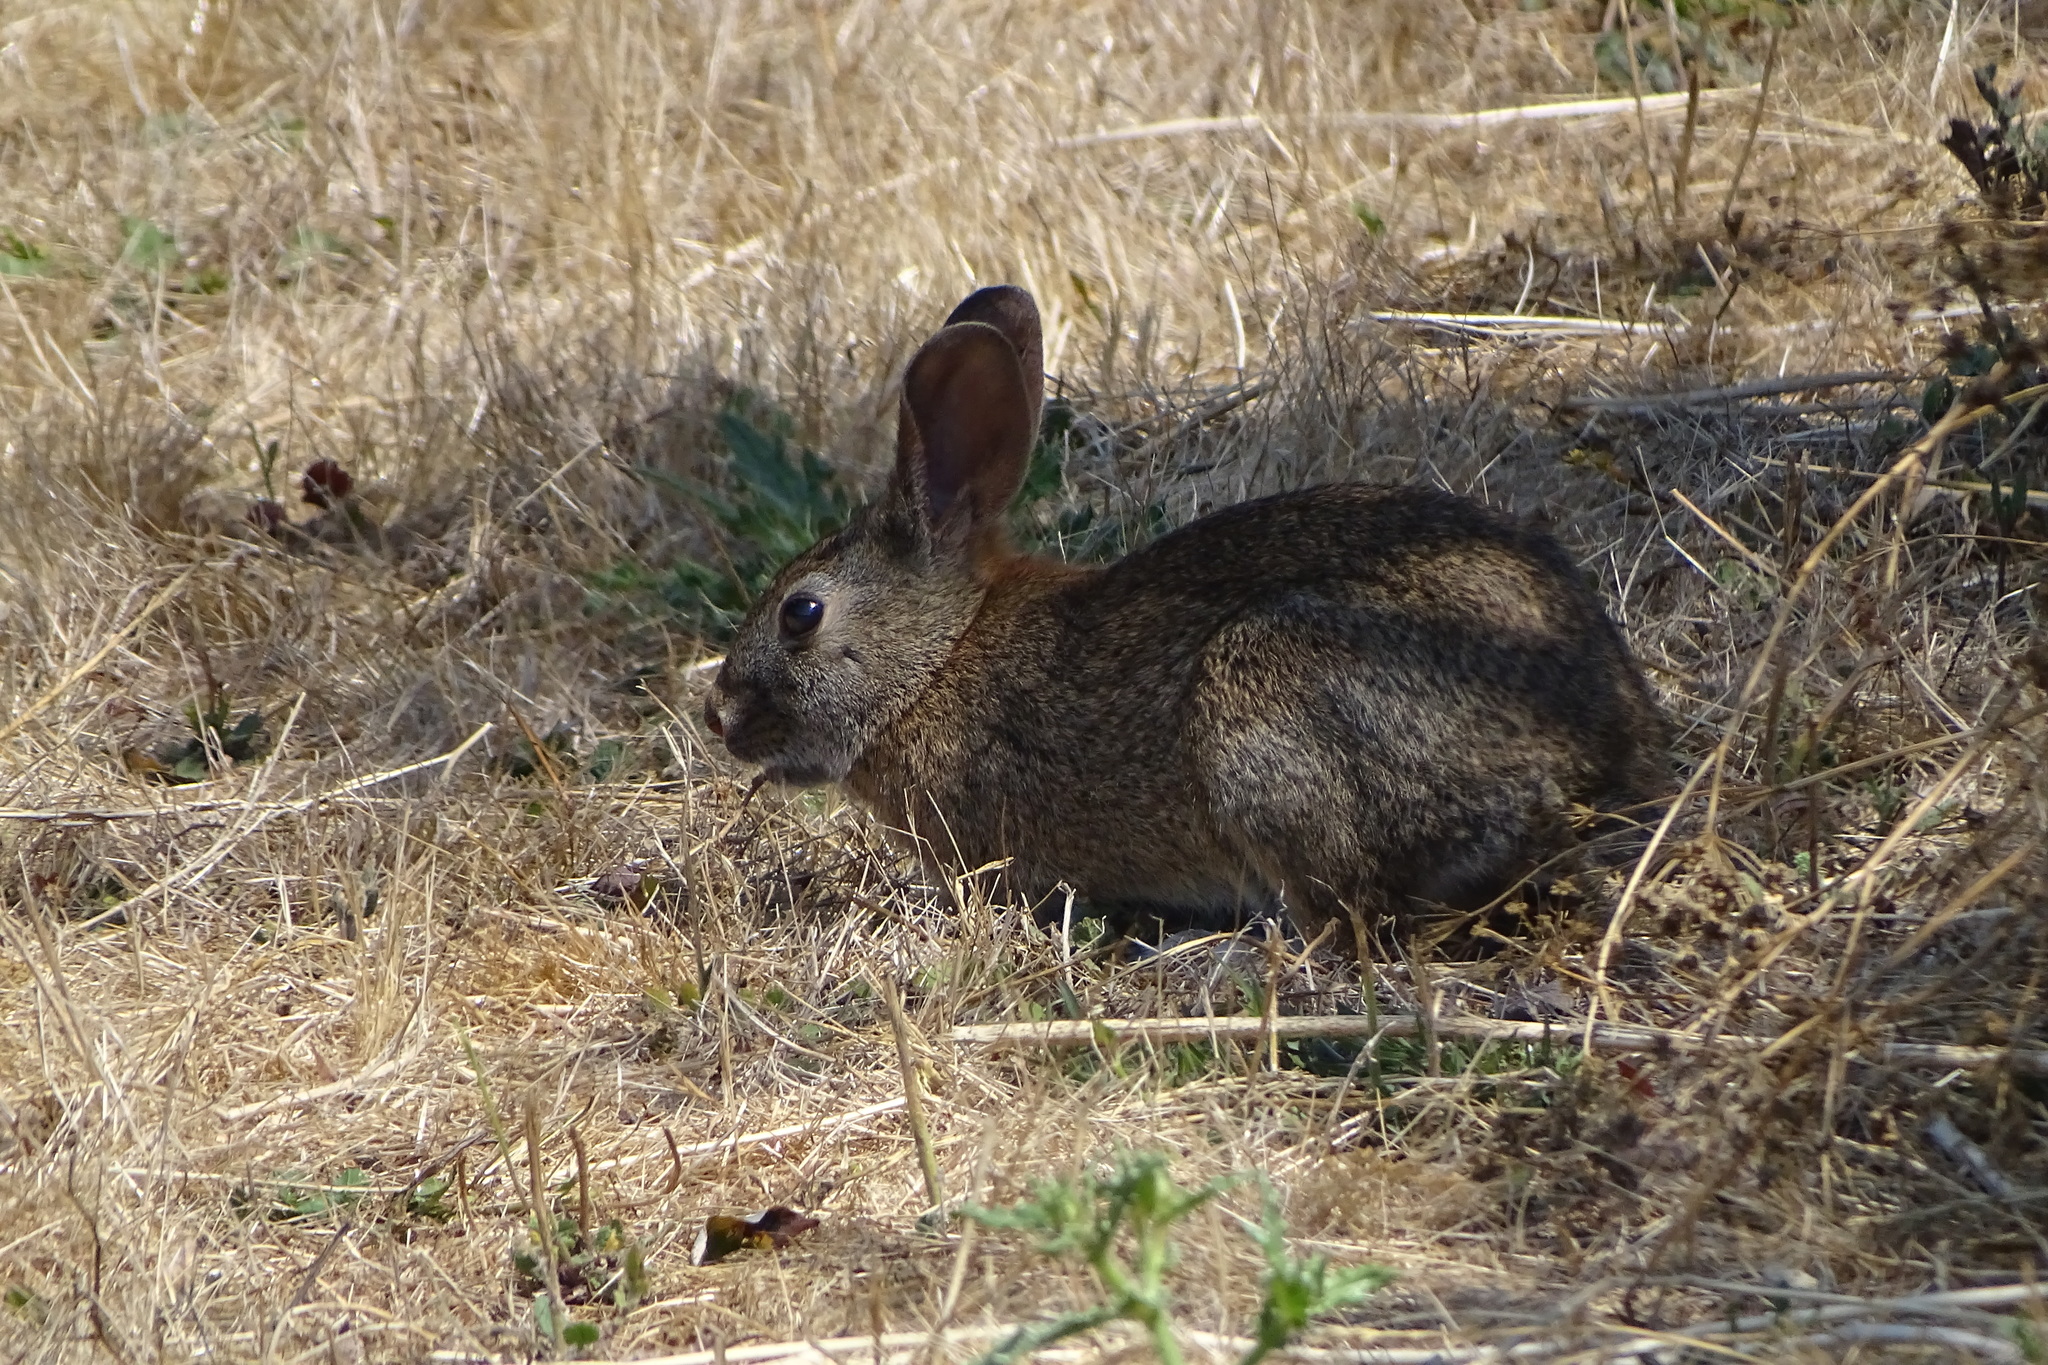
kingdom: Animalia
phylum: Chordata
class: Mammalia
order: Lagomorpha
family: Leporidae
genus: Sylvilagus
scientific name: Sylvilagus bachmani
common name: Brush rabbit
